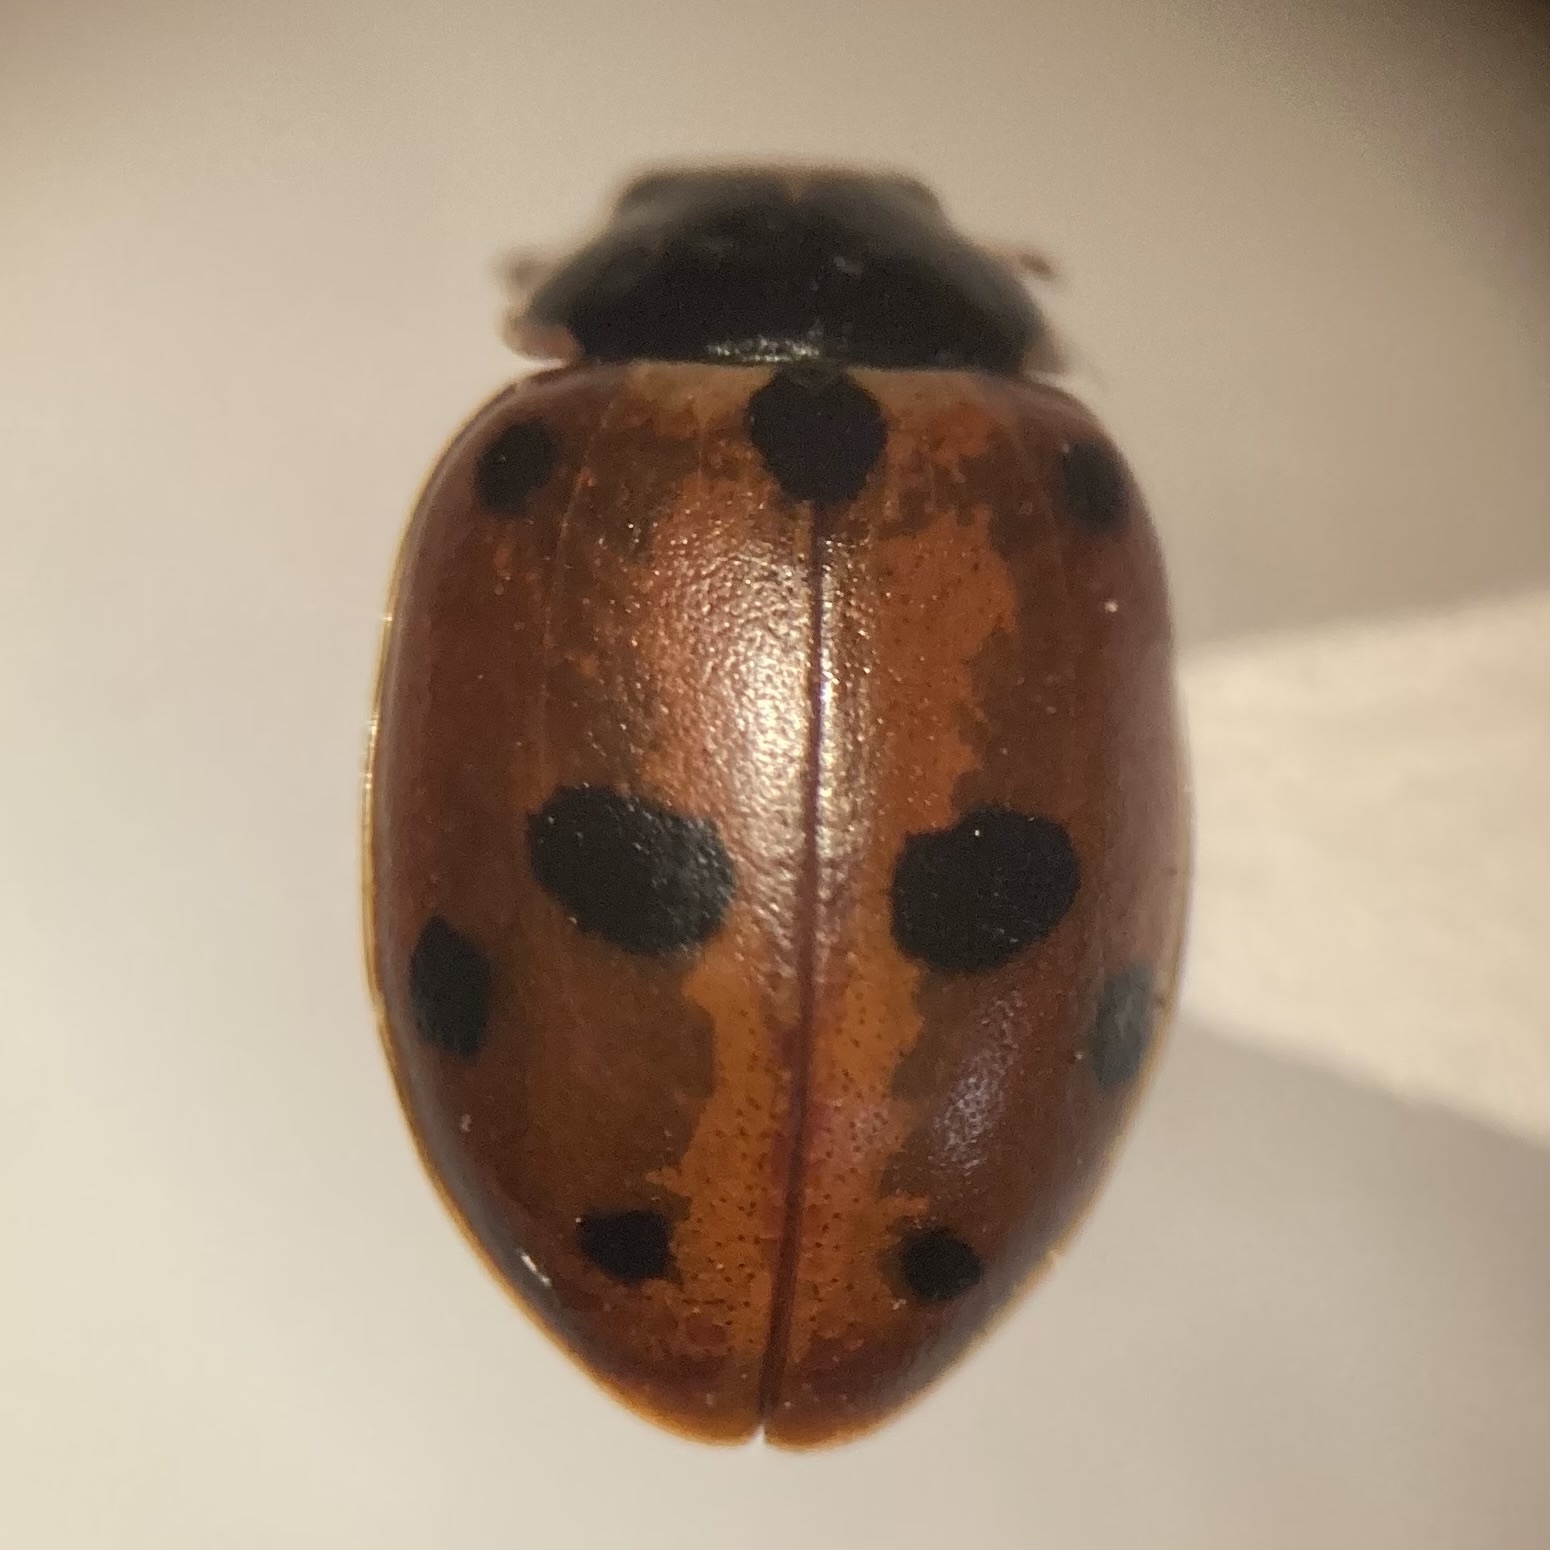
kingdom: Animalia
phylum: Arthropoda
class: Insecta
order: Coleoptera
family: Coccinellidae
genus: Hippodamia
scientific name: Hippodamia variegata
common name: Ladybird beetle
